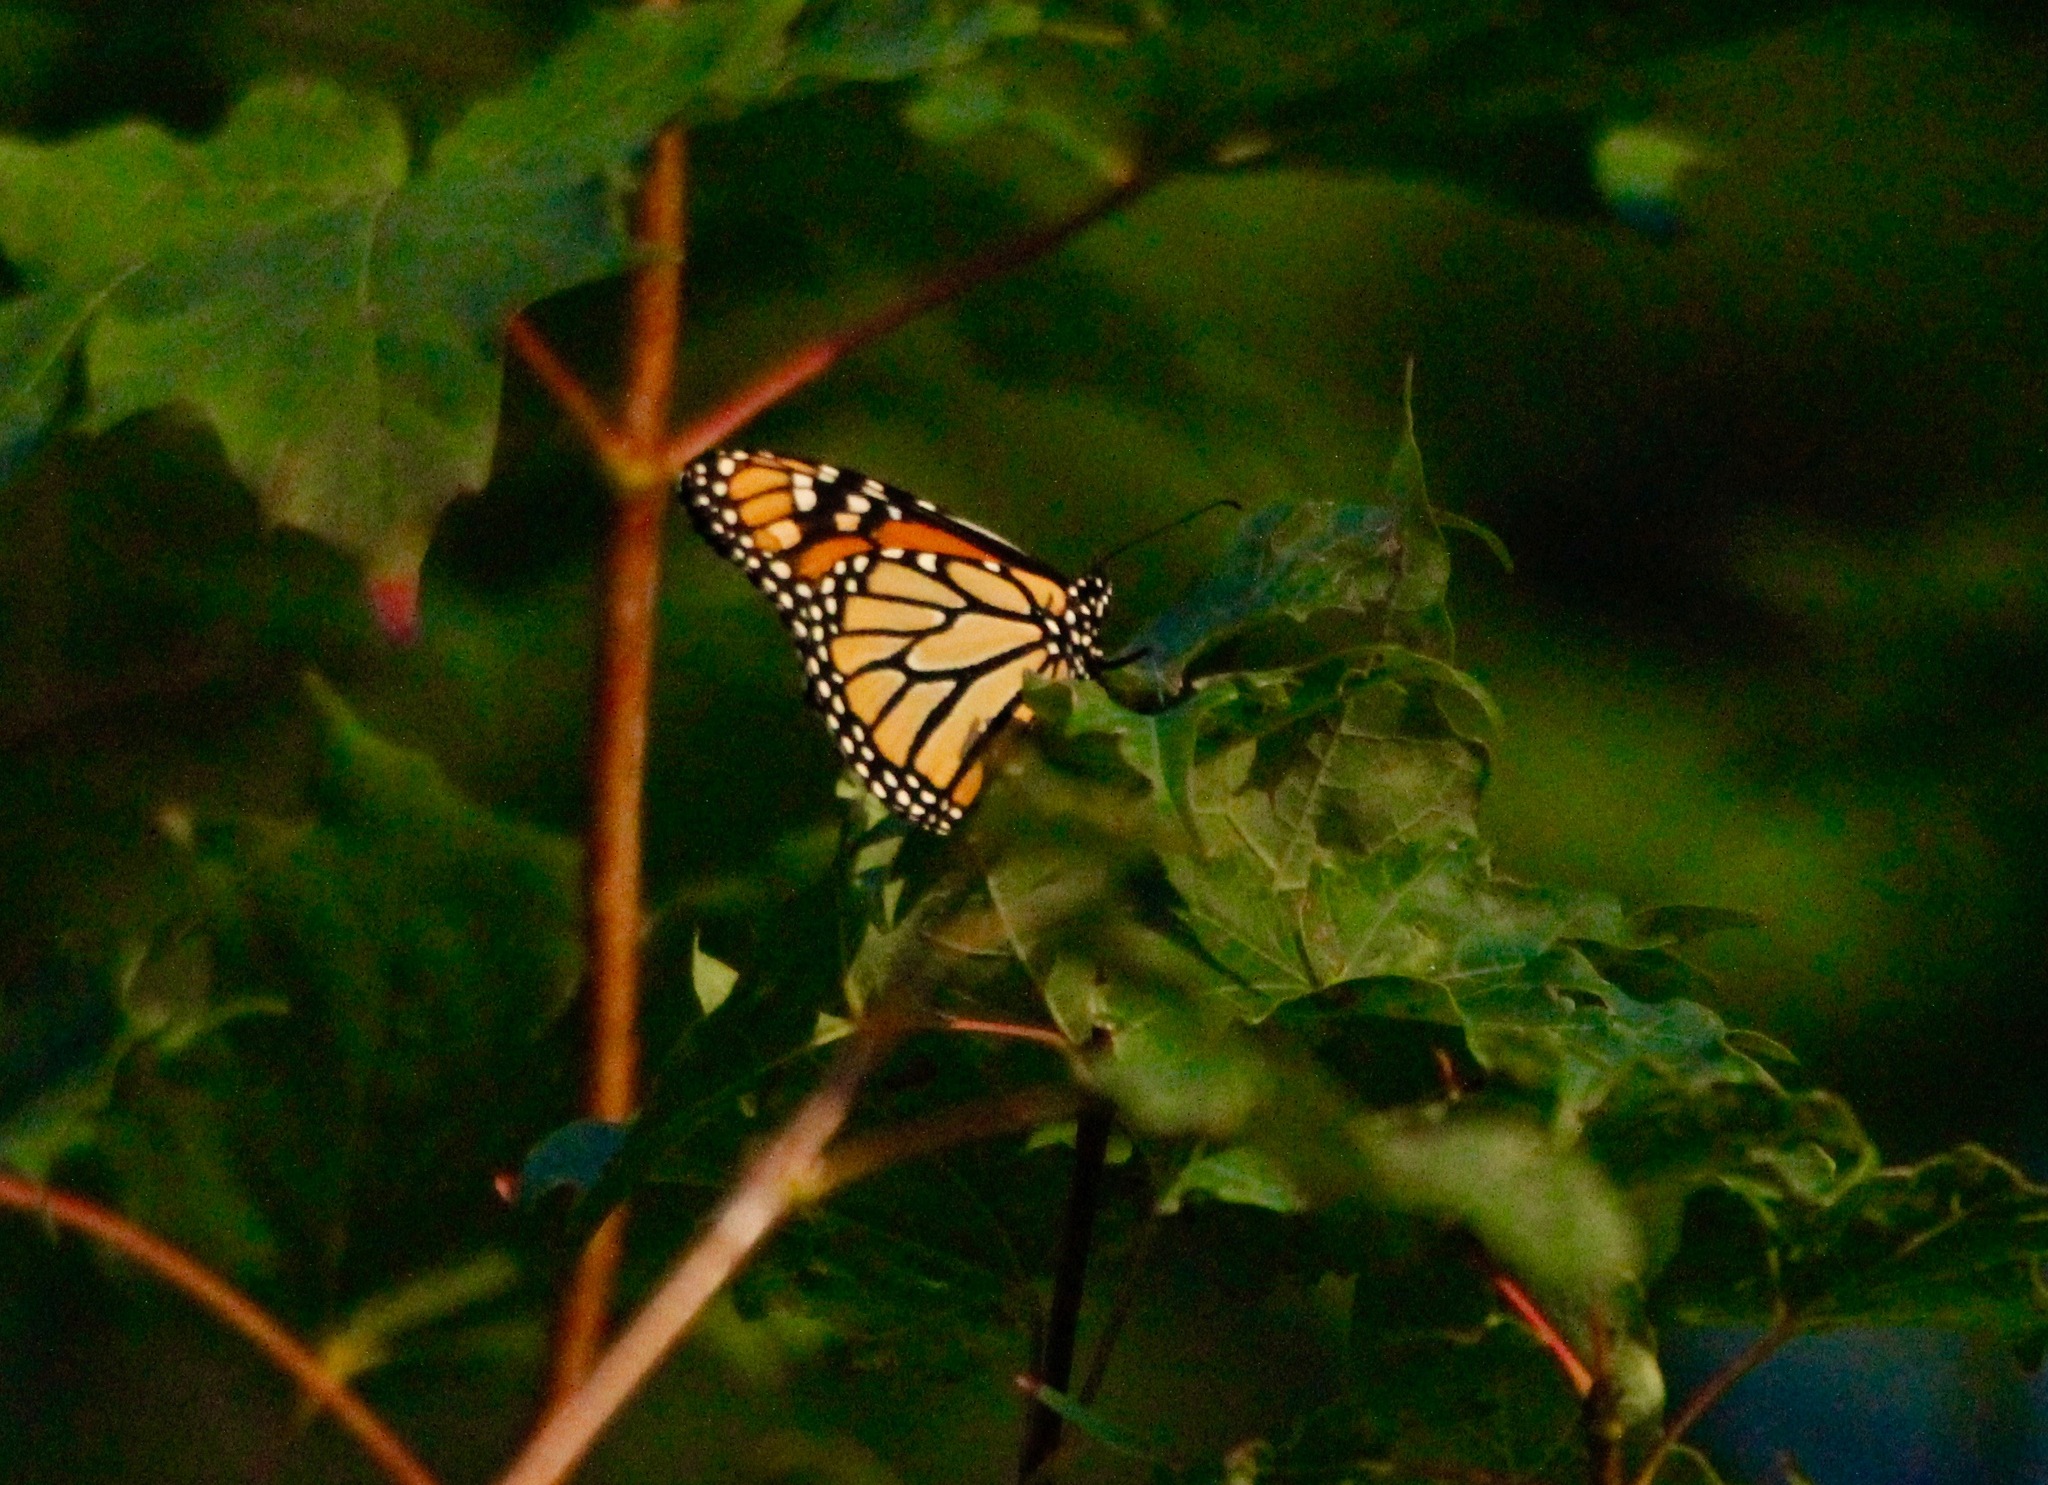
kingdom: Animalia
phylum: Arthropoda
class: Insecta
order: Lepidoptera
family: Nymphalidae
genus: Danaus
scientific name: Danaus plexippus
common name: Monarch
